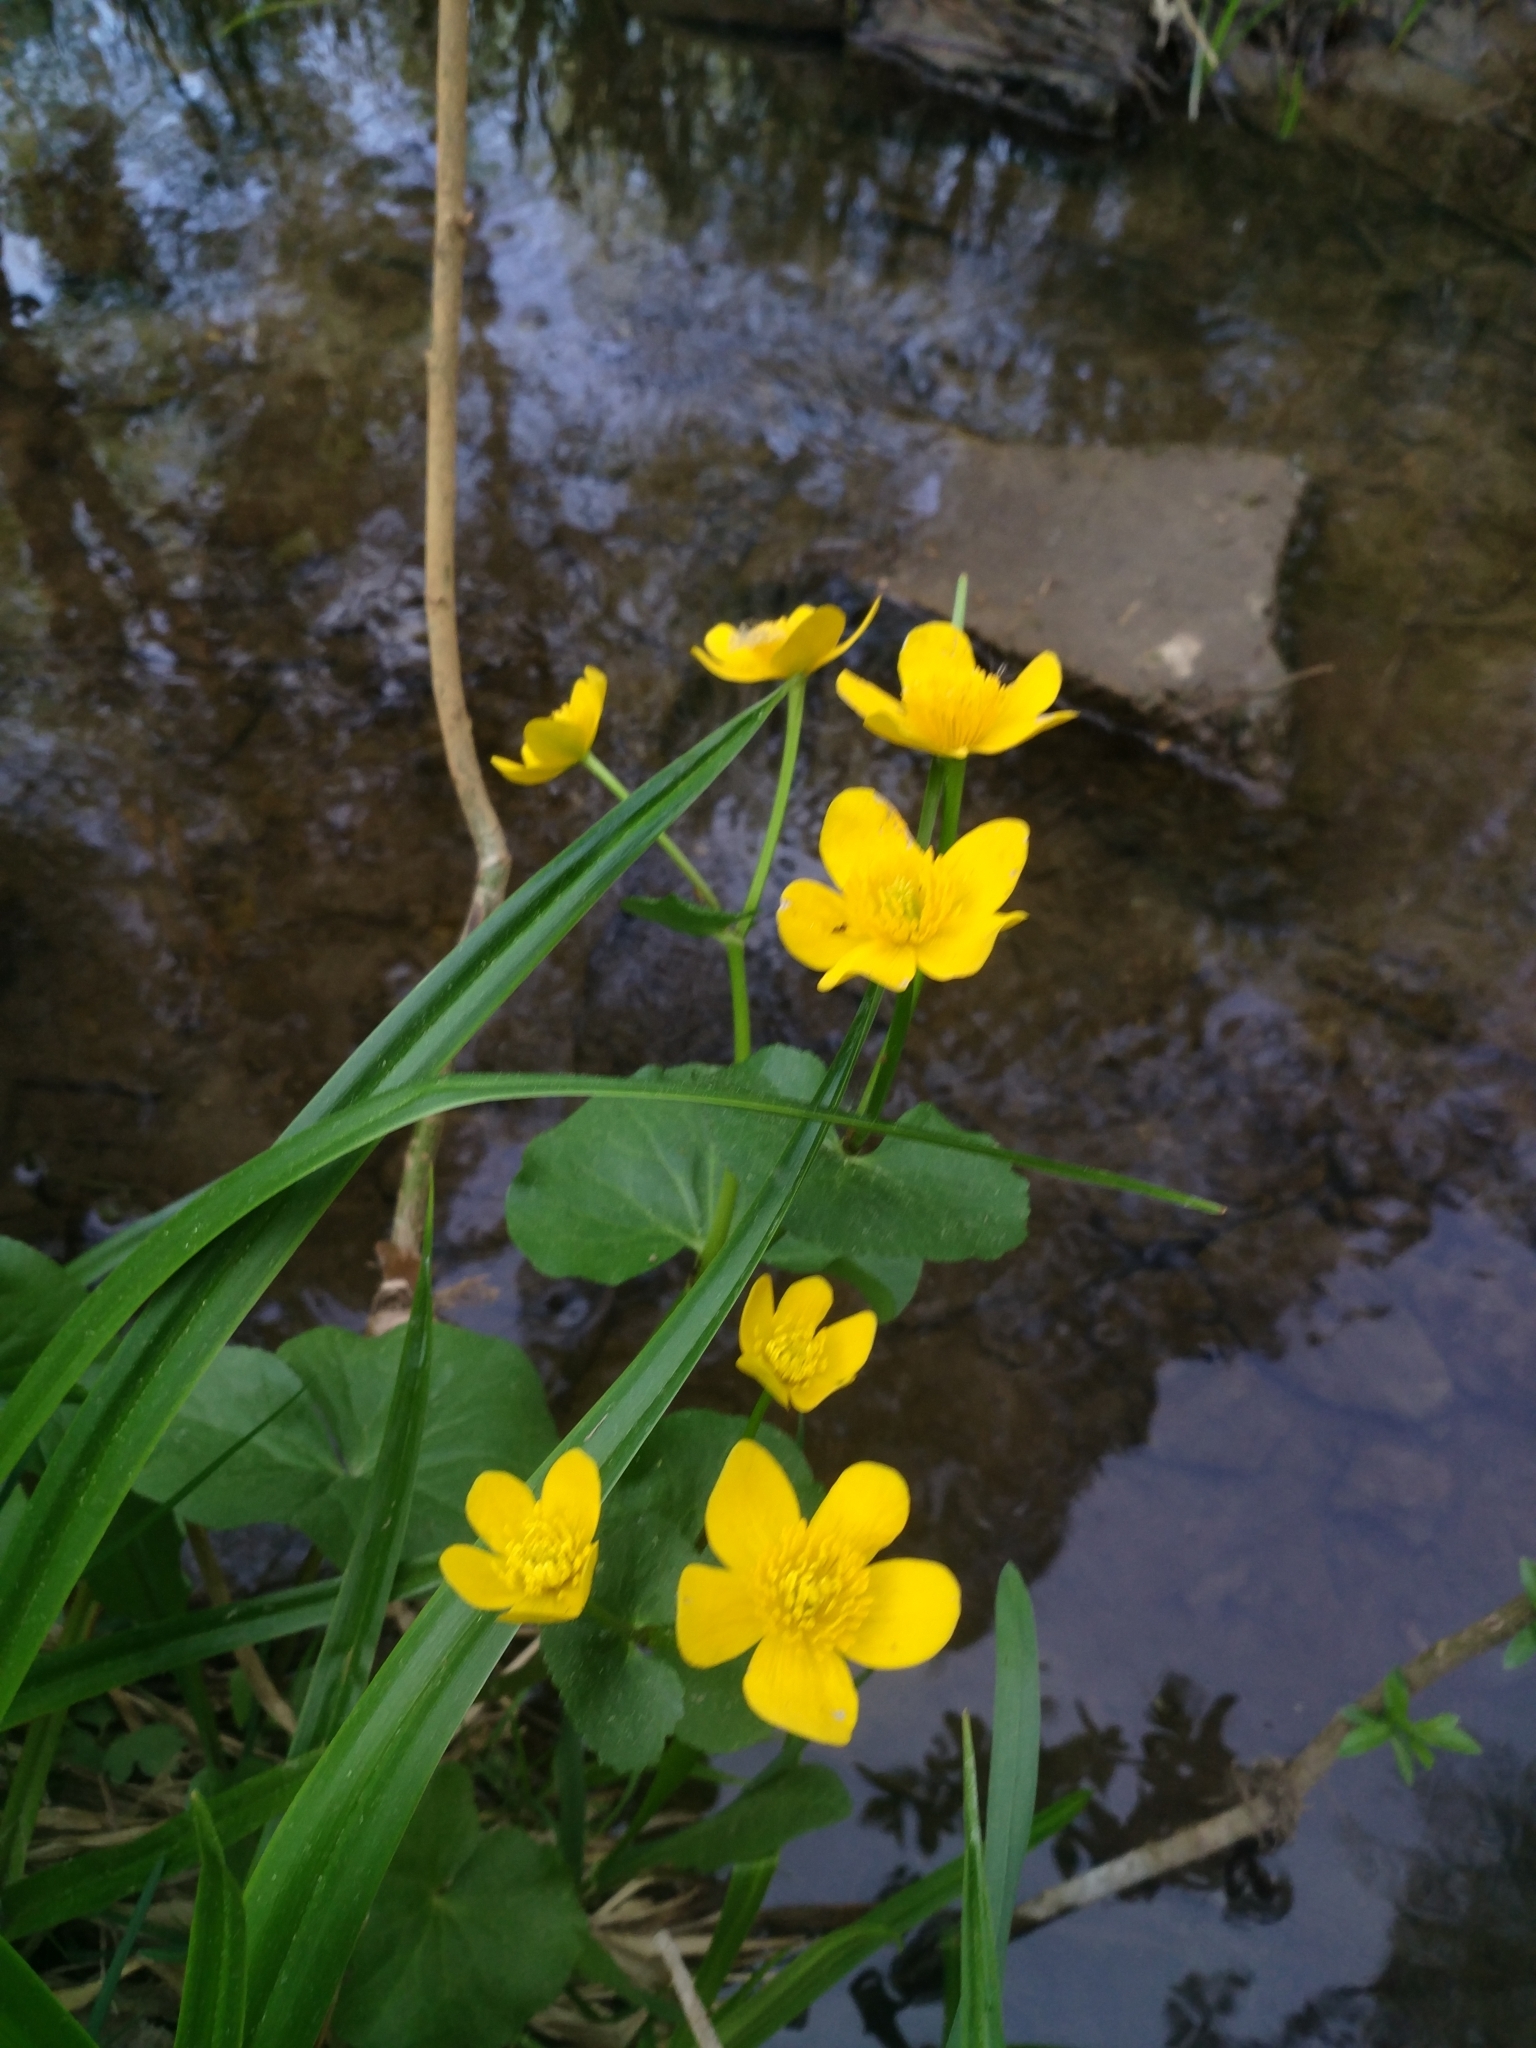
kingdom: Plantae
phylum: Tracheophyta
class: Magnoliopsida
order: Ranunculales
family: Ranunculaceae
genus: Caltha
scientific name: Caltha palustris
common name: Marsh marigold
